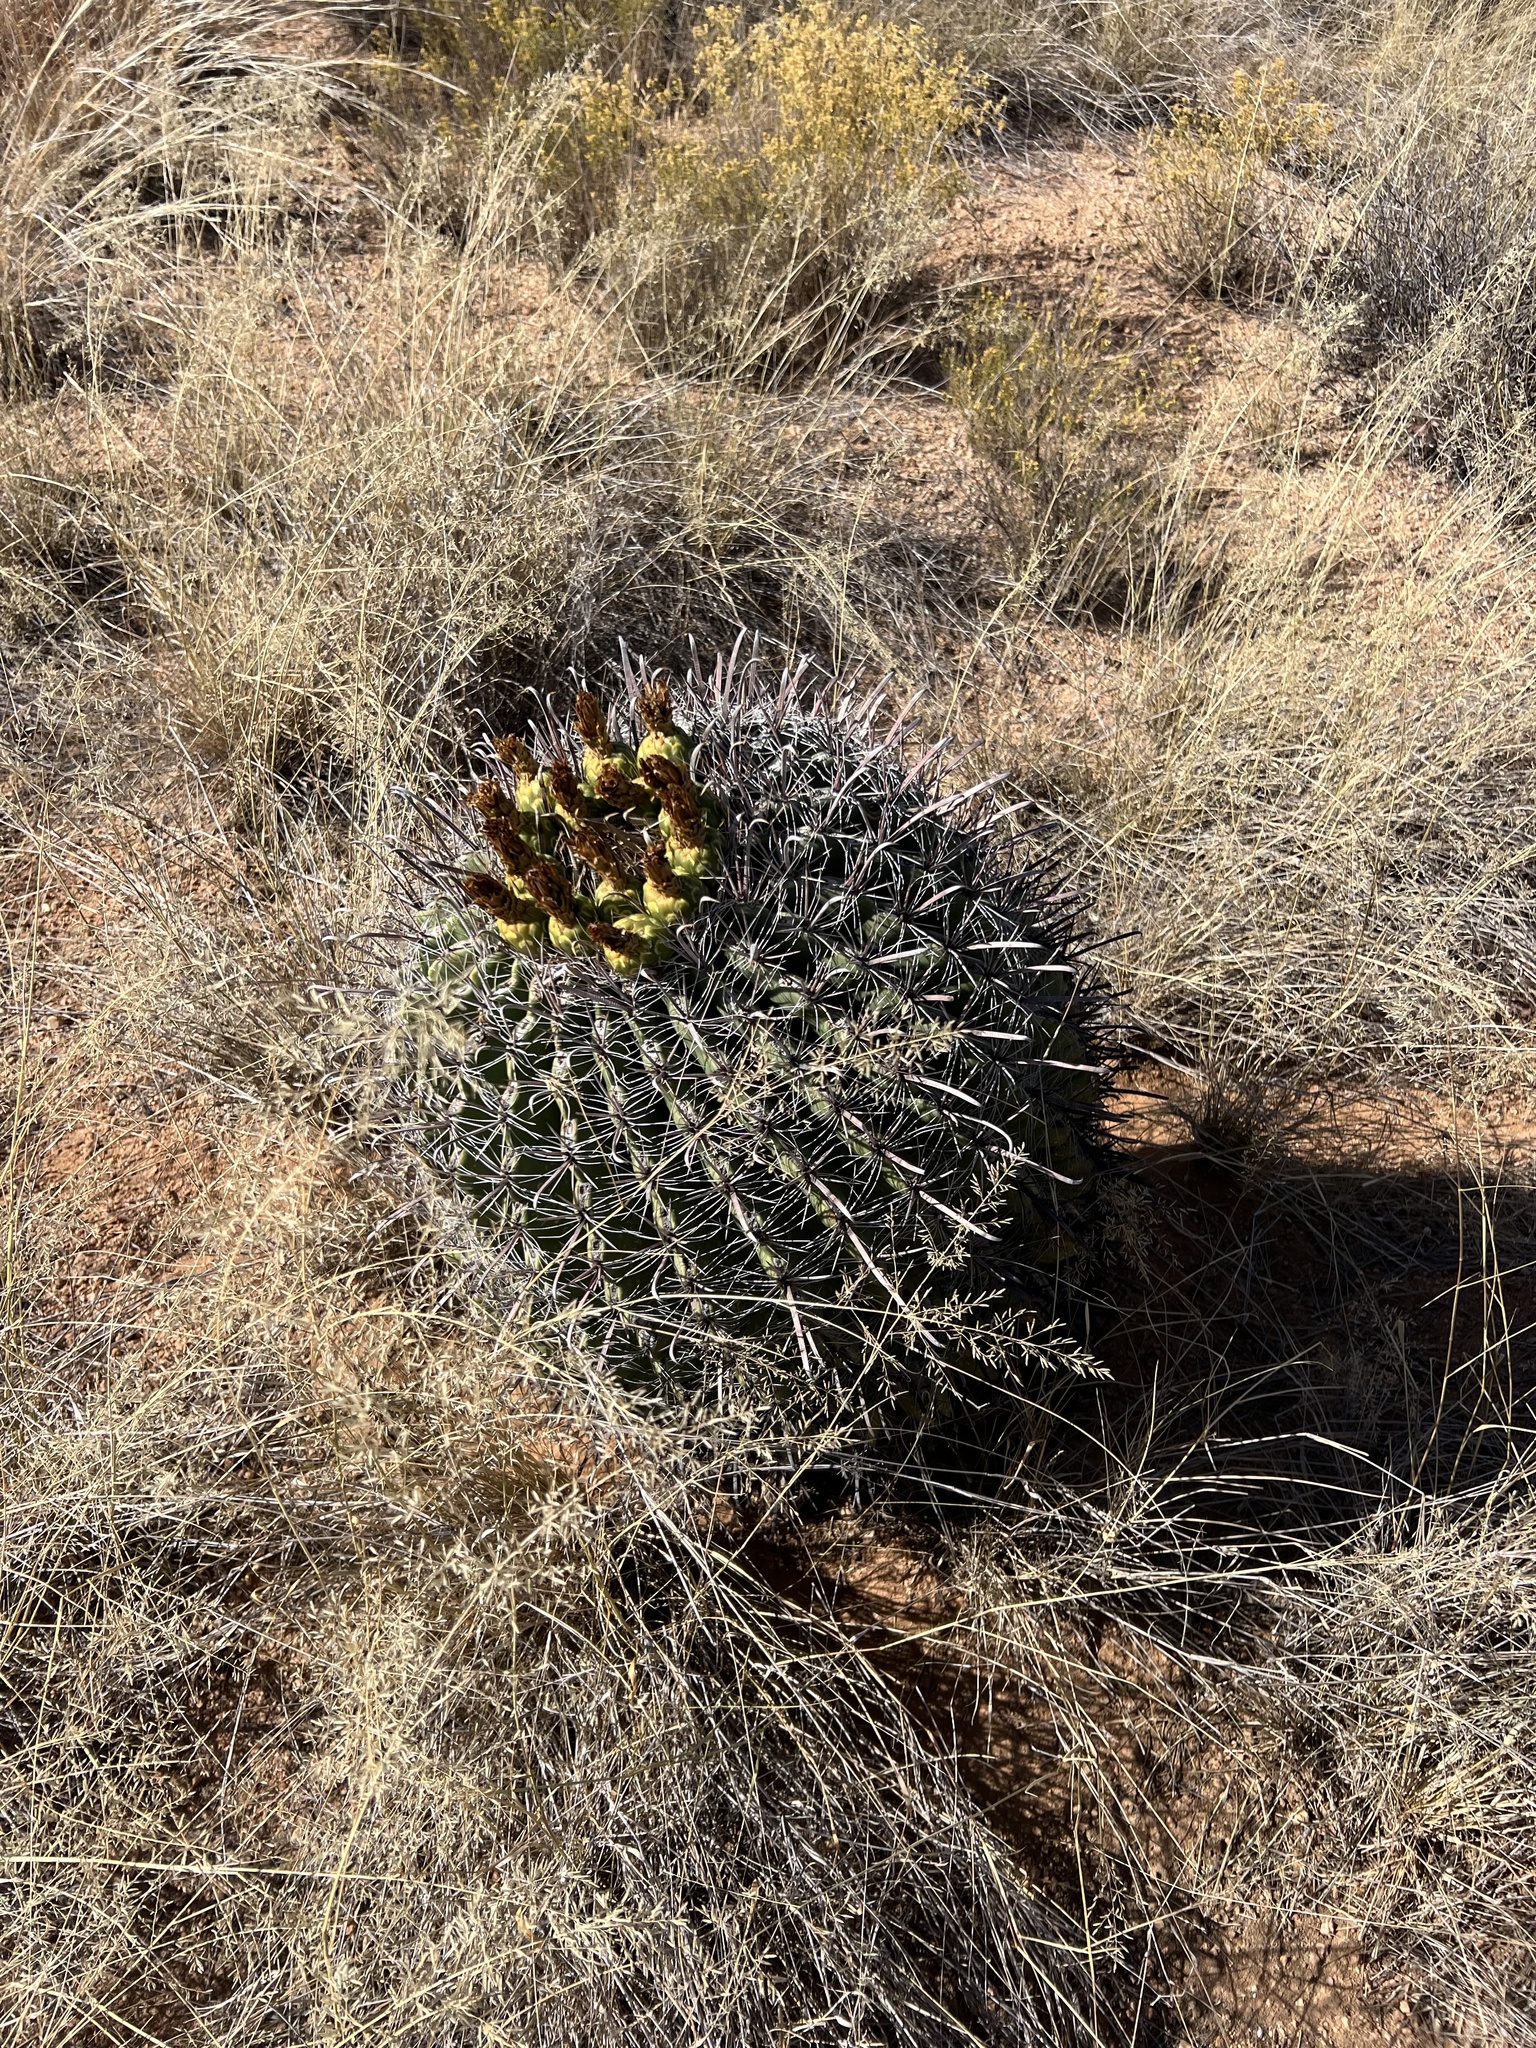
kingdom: Plantae
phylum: Tracheophyta
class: Magnoliopsida
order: Caryophyllales
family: Cactaceae
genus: Ferocactus
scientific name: Ferocactus wislizeni
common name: Candy barrel cactus
